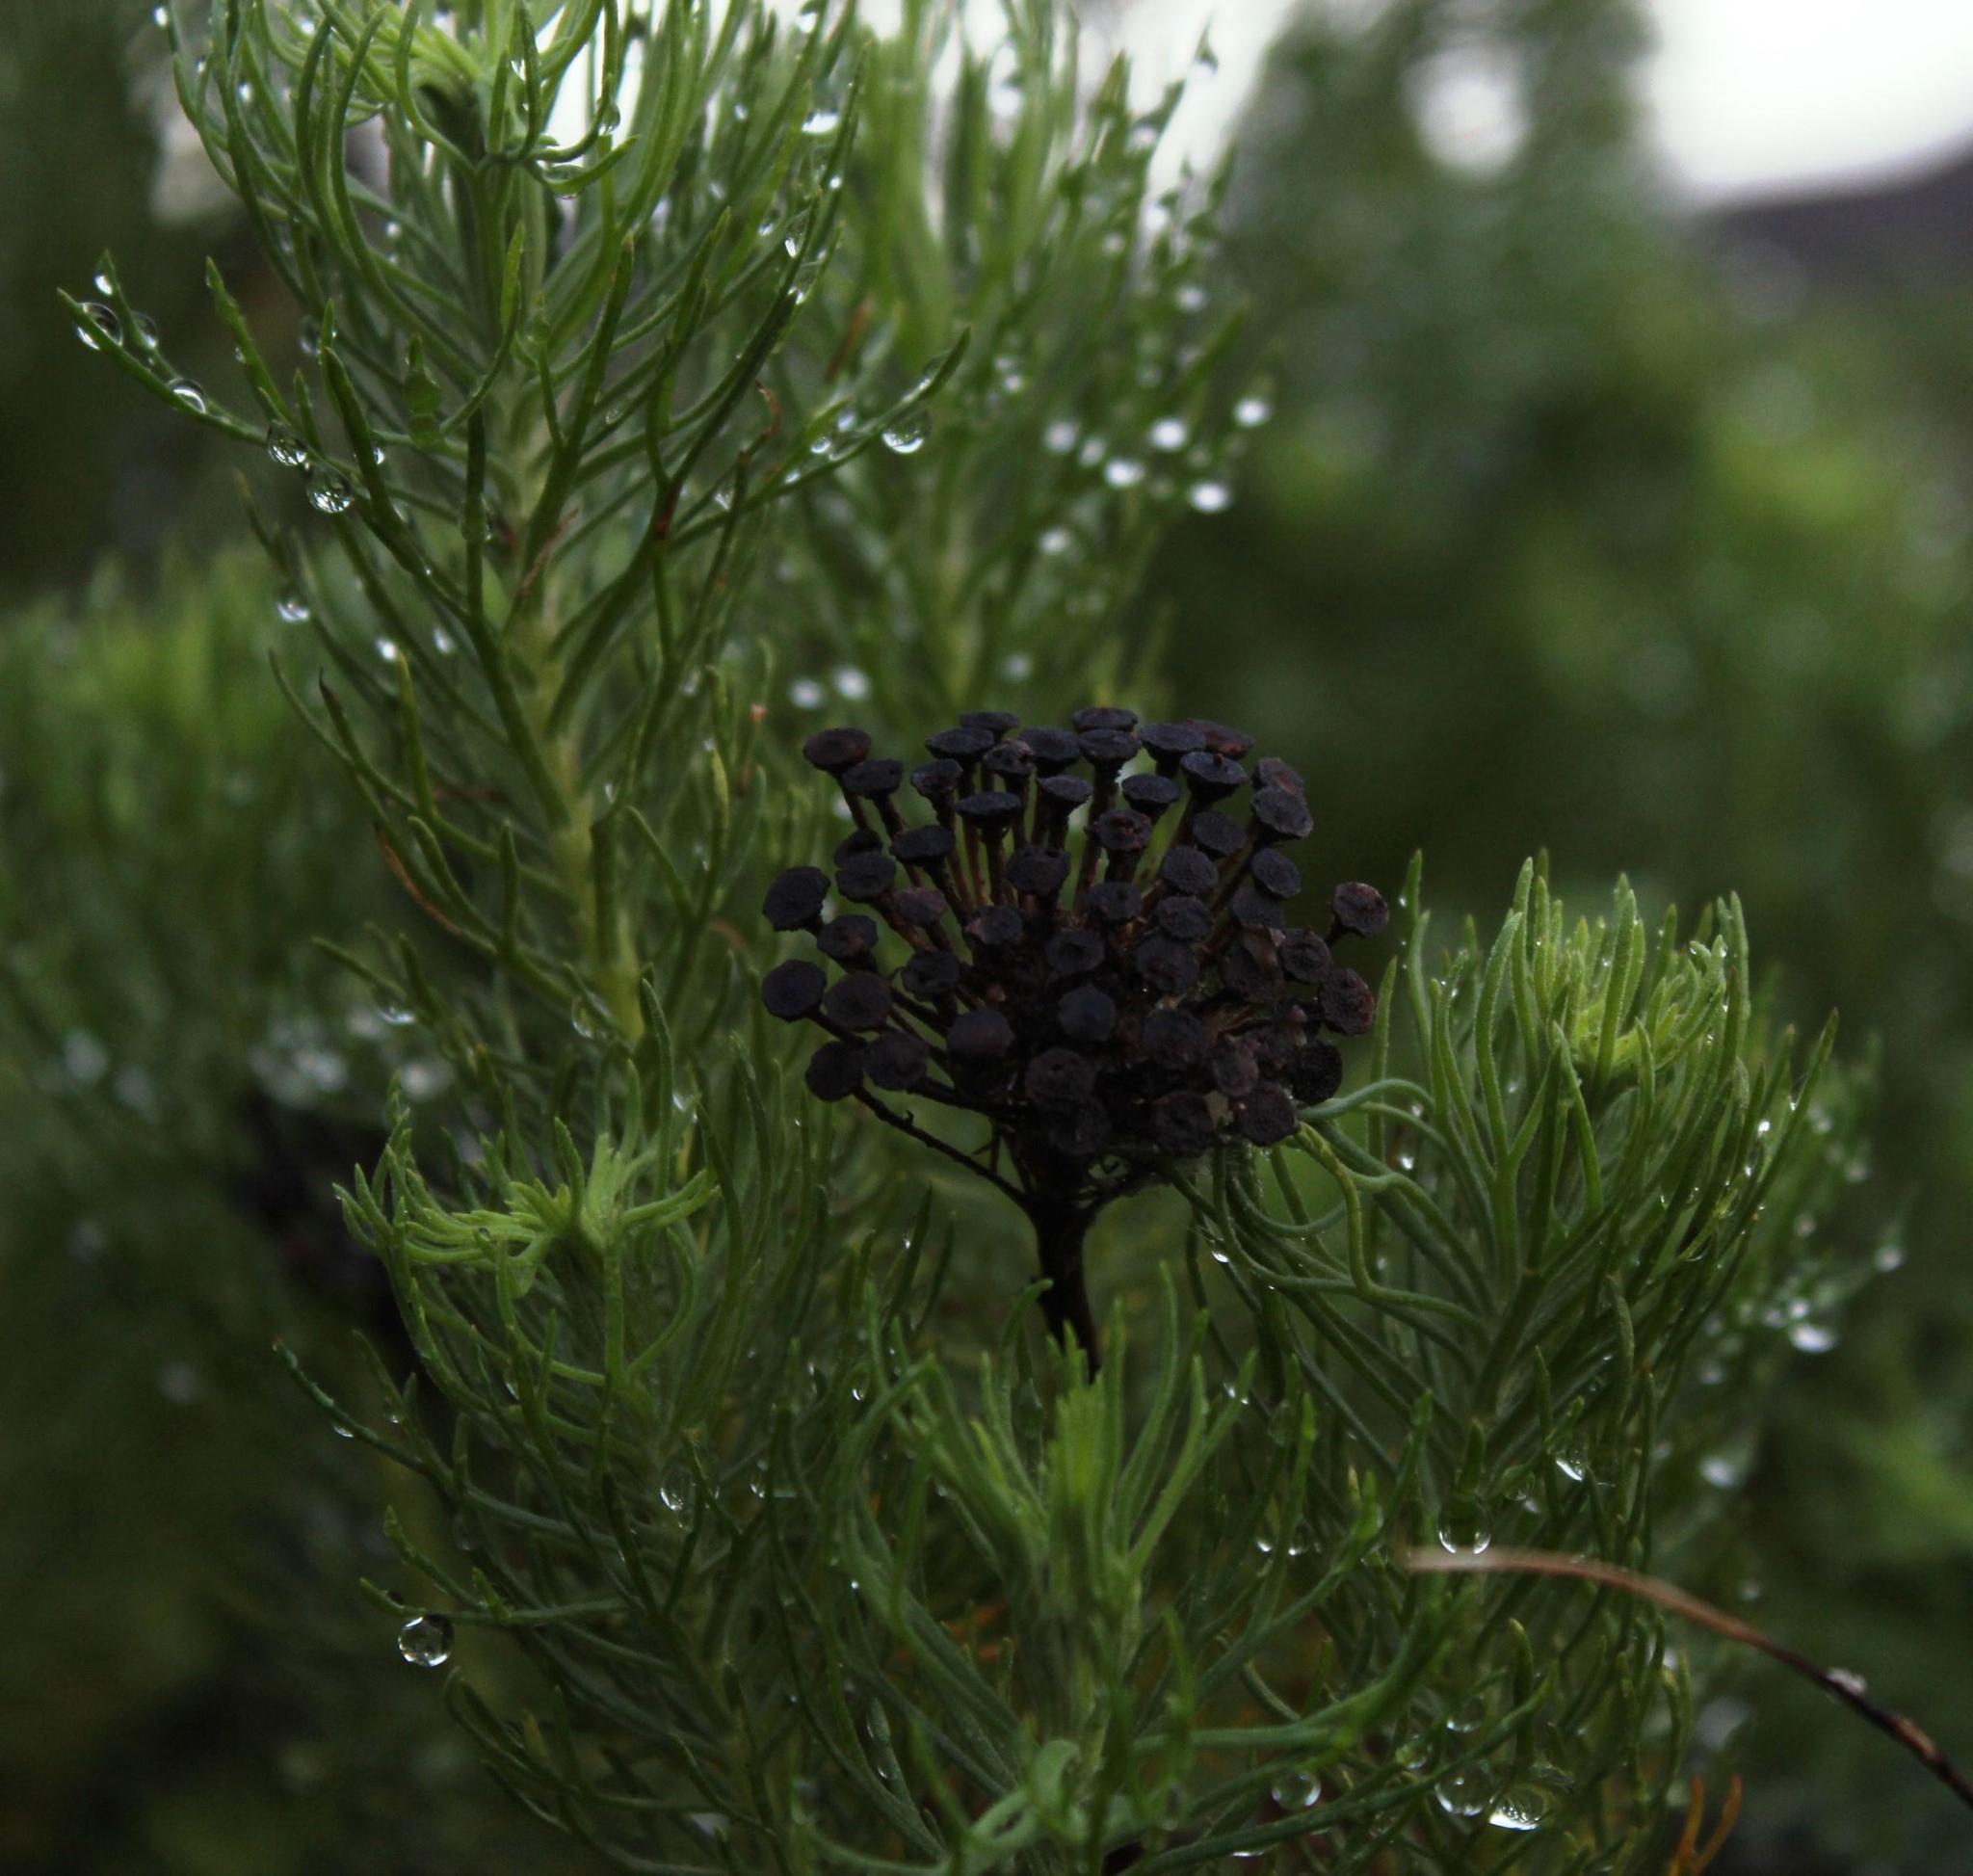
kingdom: Plantae
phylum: Tracheophyta
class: Magnoliopsida
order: Asterales
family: Asteraceae
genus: Athanasia
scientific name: Athanasia crithmifolia
